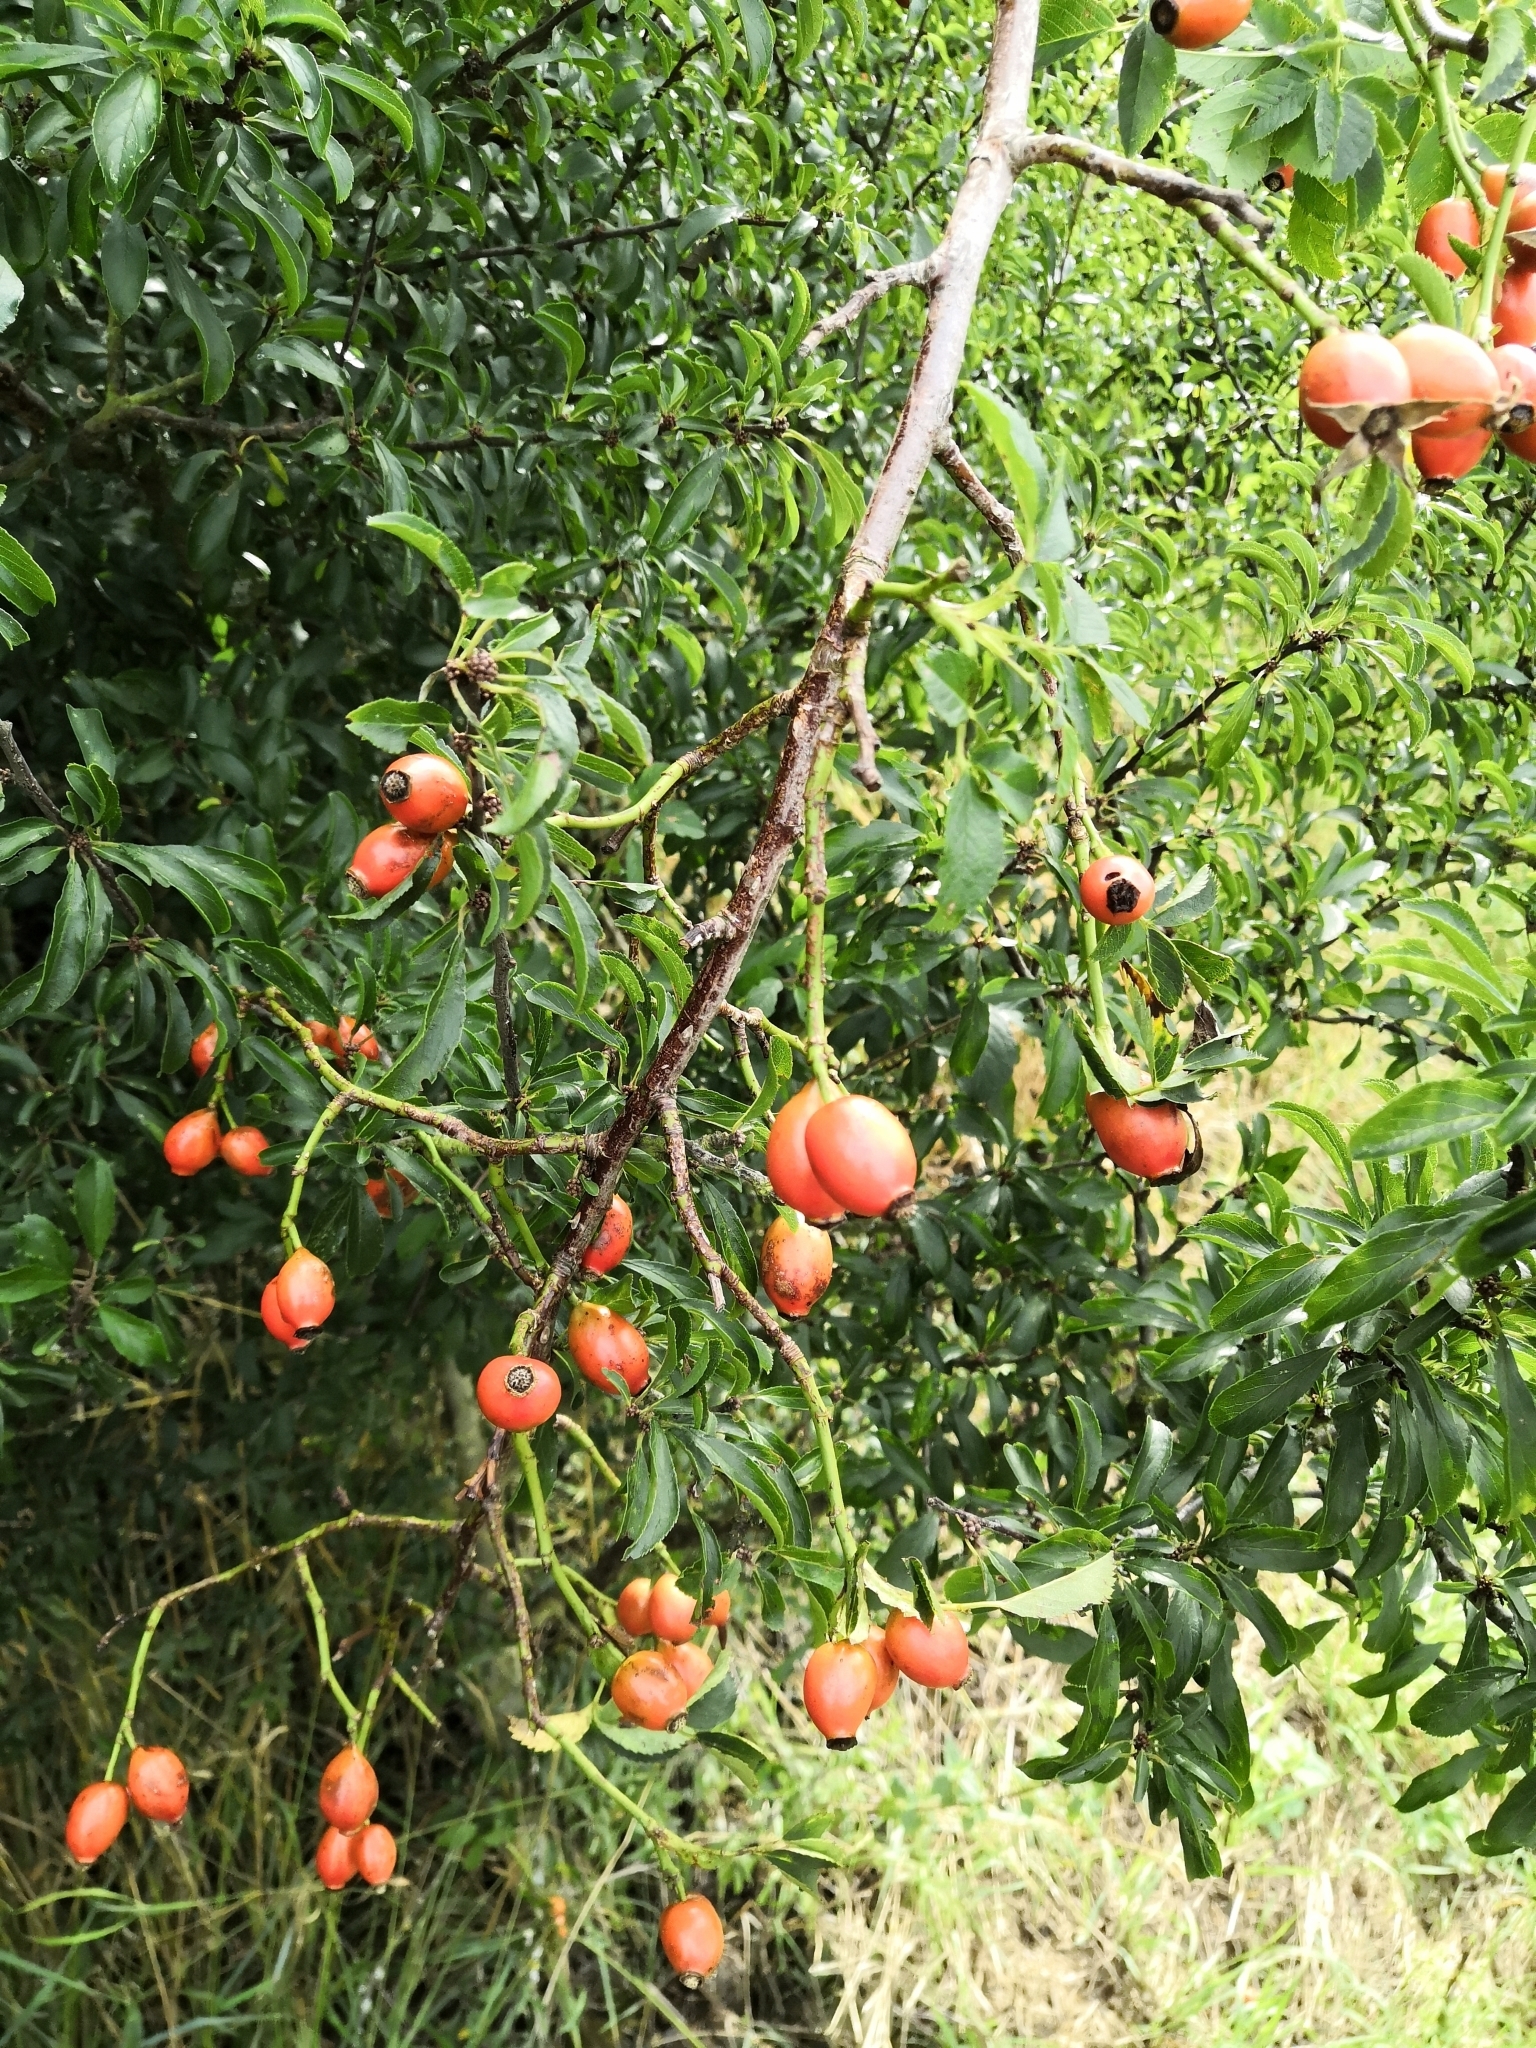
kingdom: Plantae
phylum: Tracheophyta
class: Magnoliopsida
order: Rosales
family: Rosaceae
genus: Rosa
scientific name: Rosa canina
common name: Dog rose
